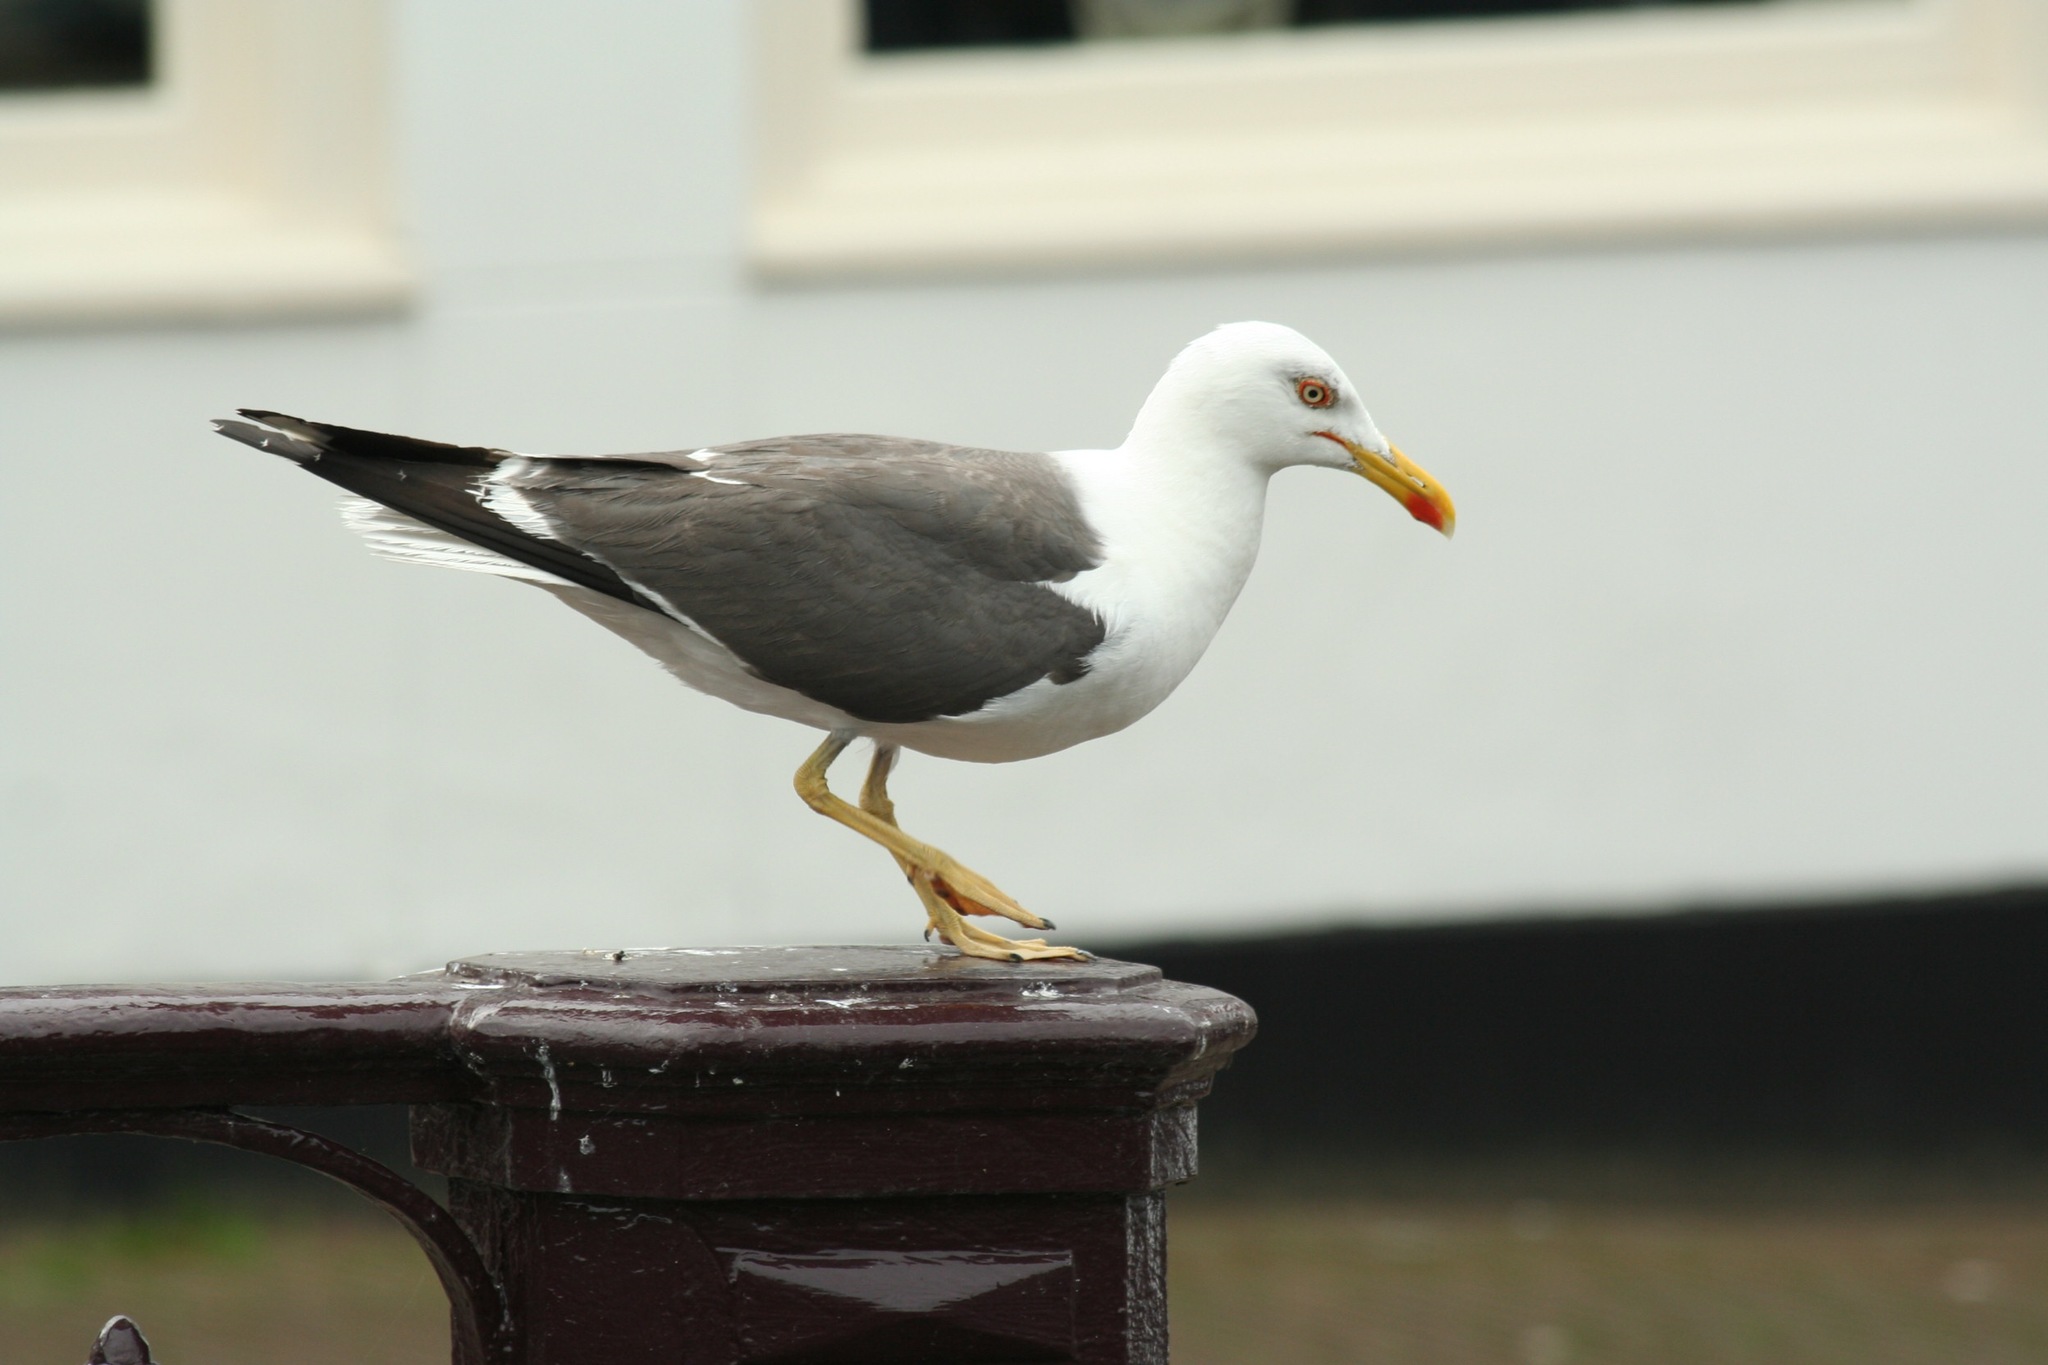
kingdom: Animalia
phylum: Chordata
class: Aves
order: Charadriiformes
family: Laridae
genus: Larus
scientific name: Larus fuscus
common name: Lesser black-backed gull
